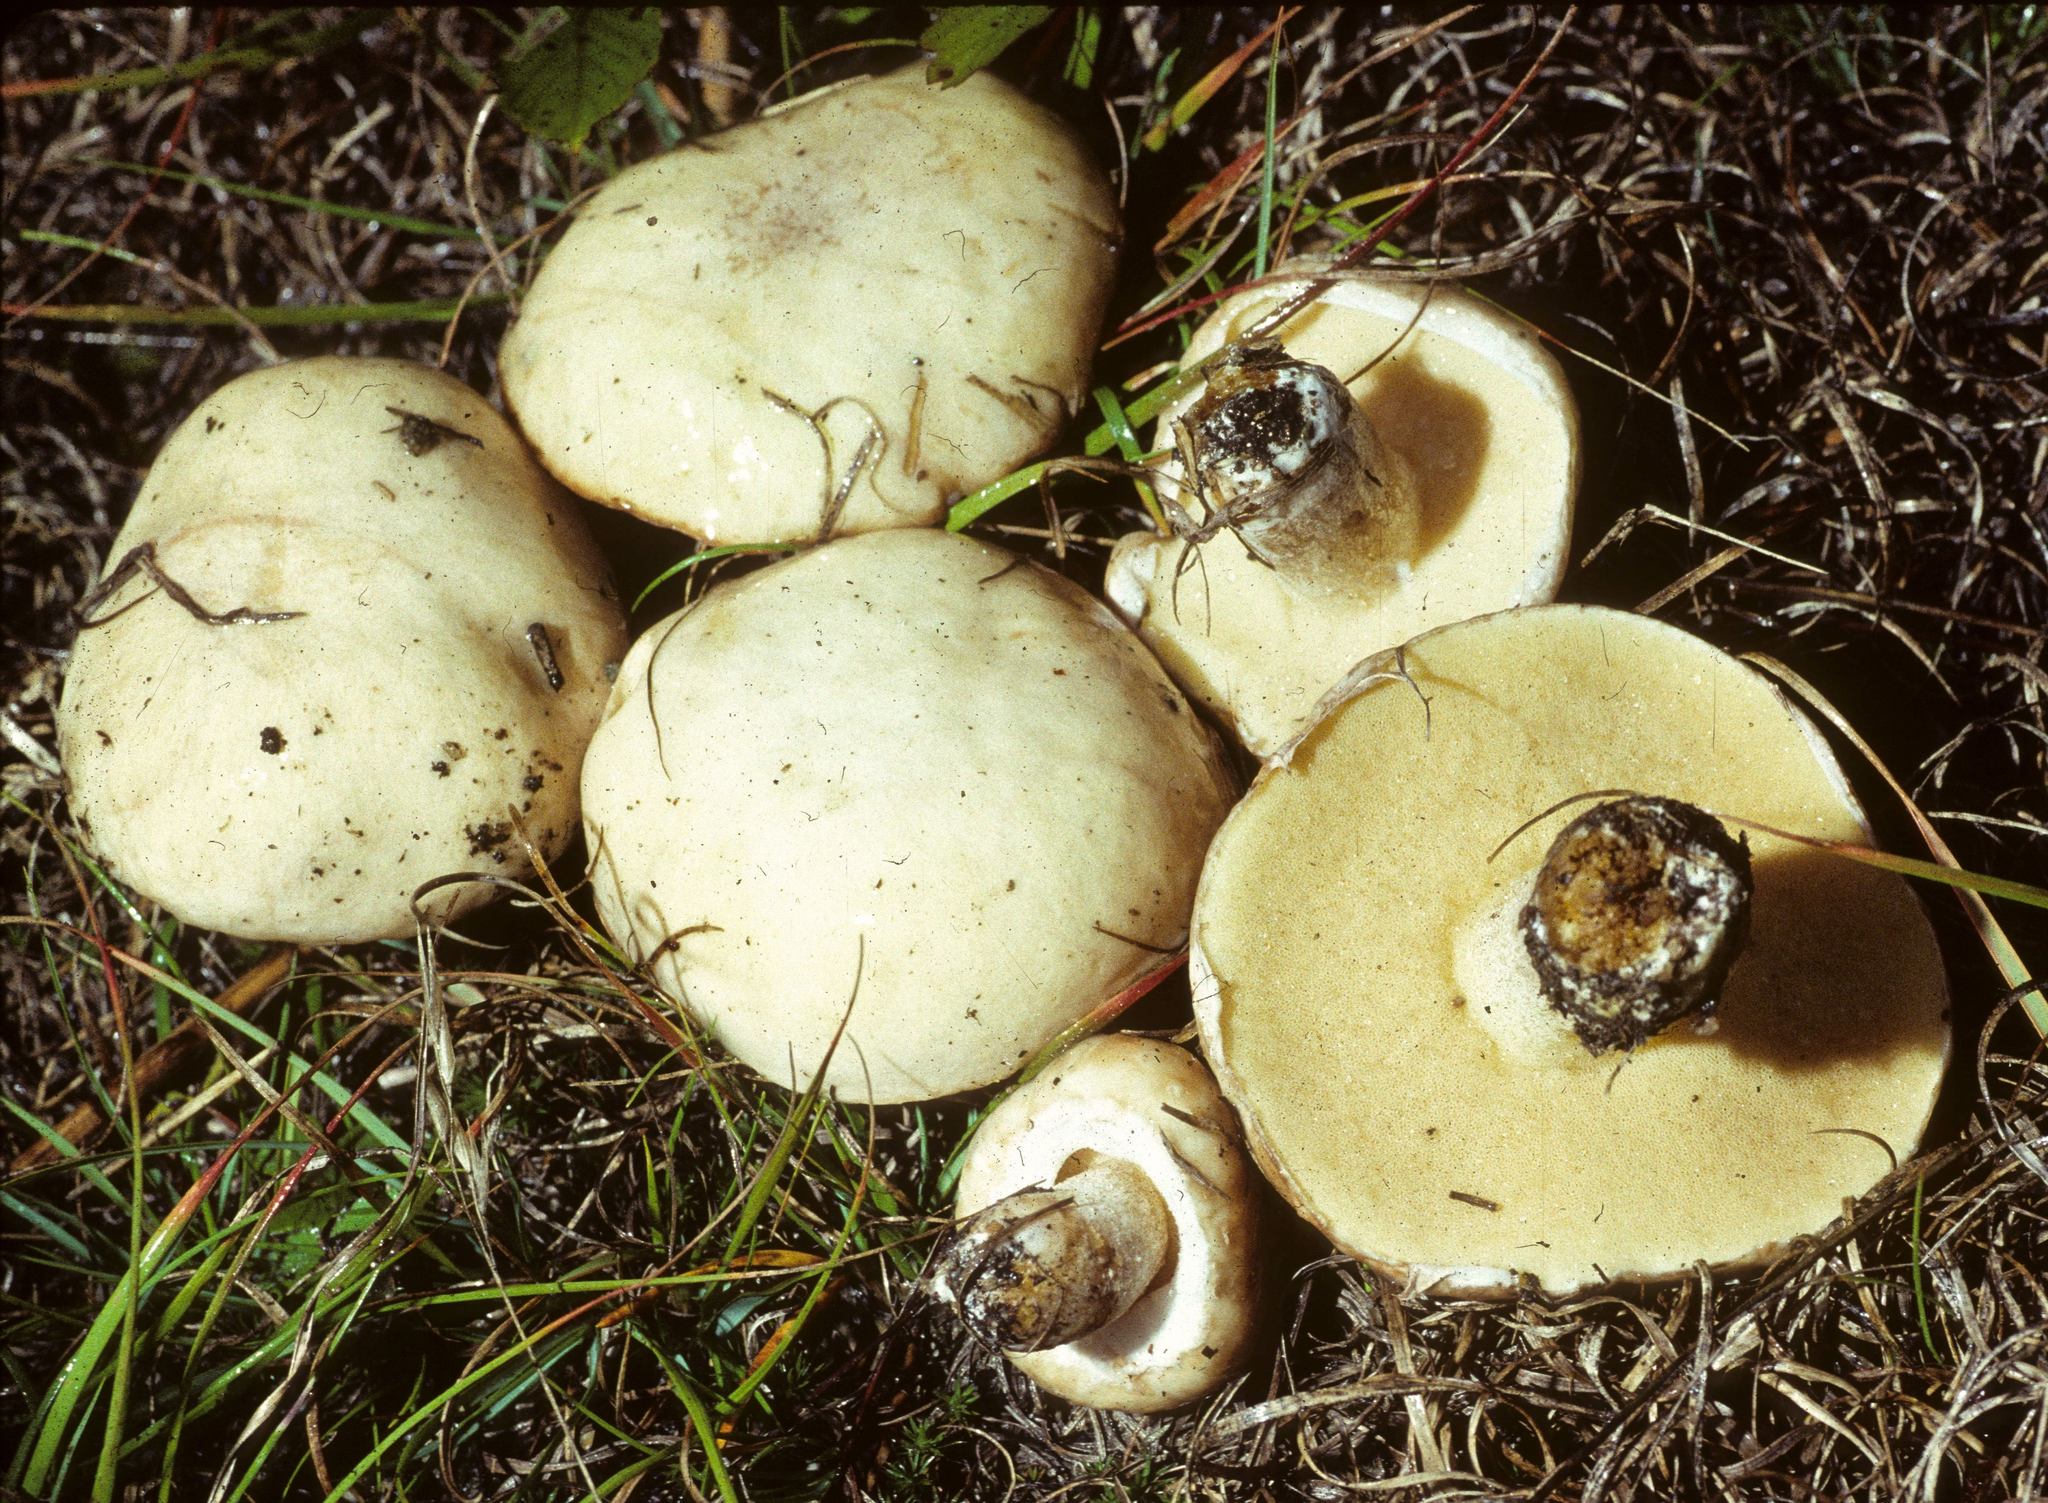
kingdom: Fungi
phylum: Basidiomycota
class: Agaricomycetes
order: Boletales
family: Suillaceae
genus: Suillus
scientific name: Suillus neoalbidipes
